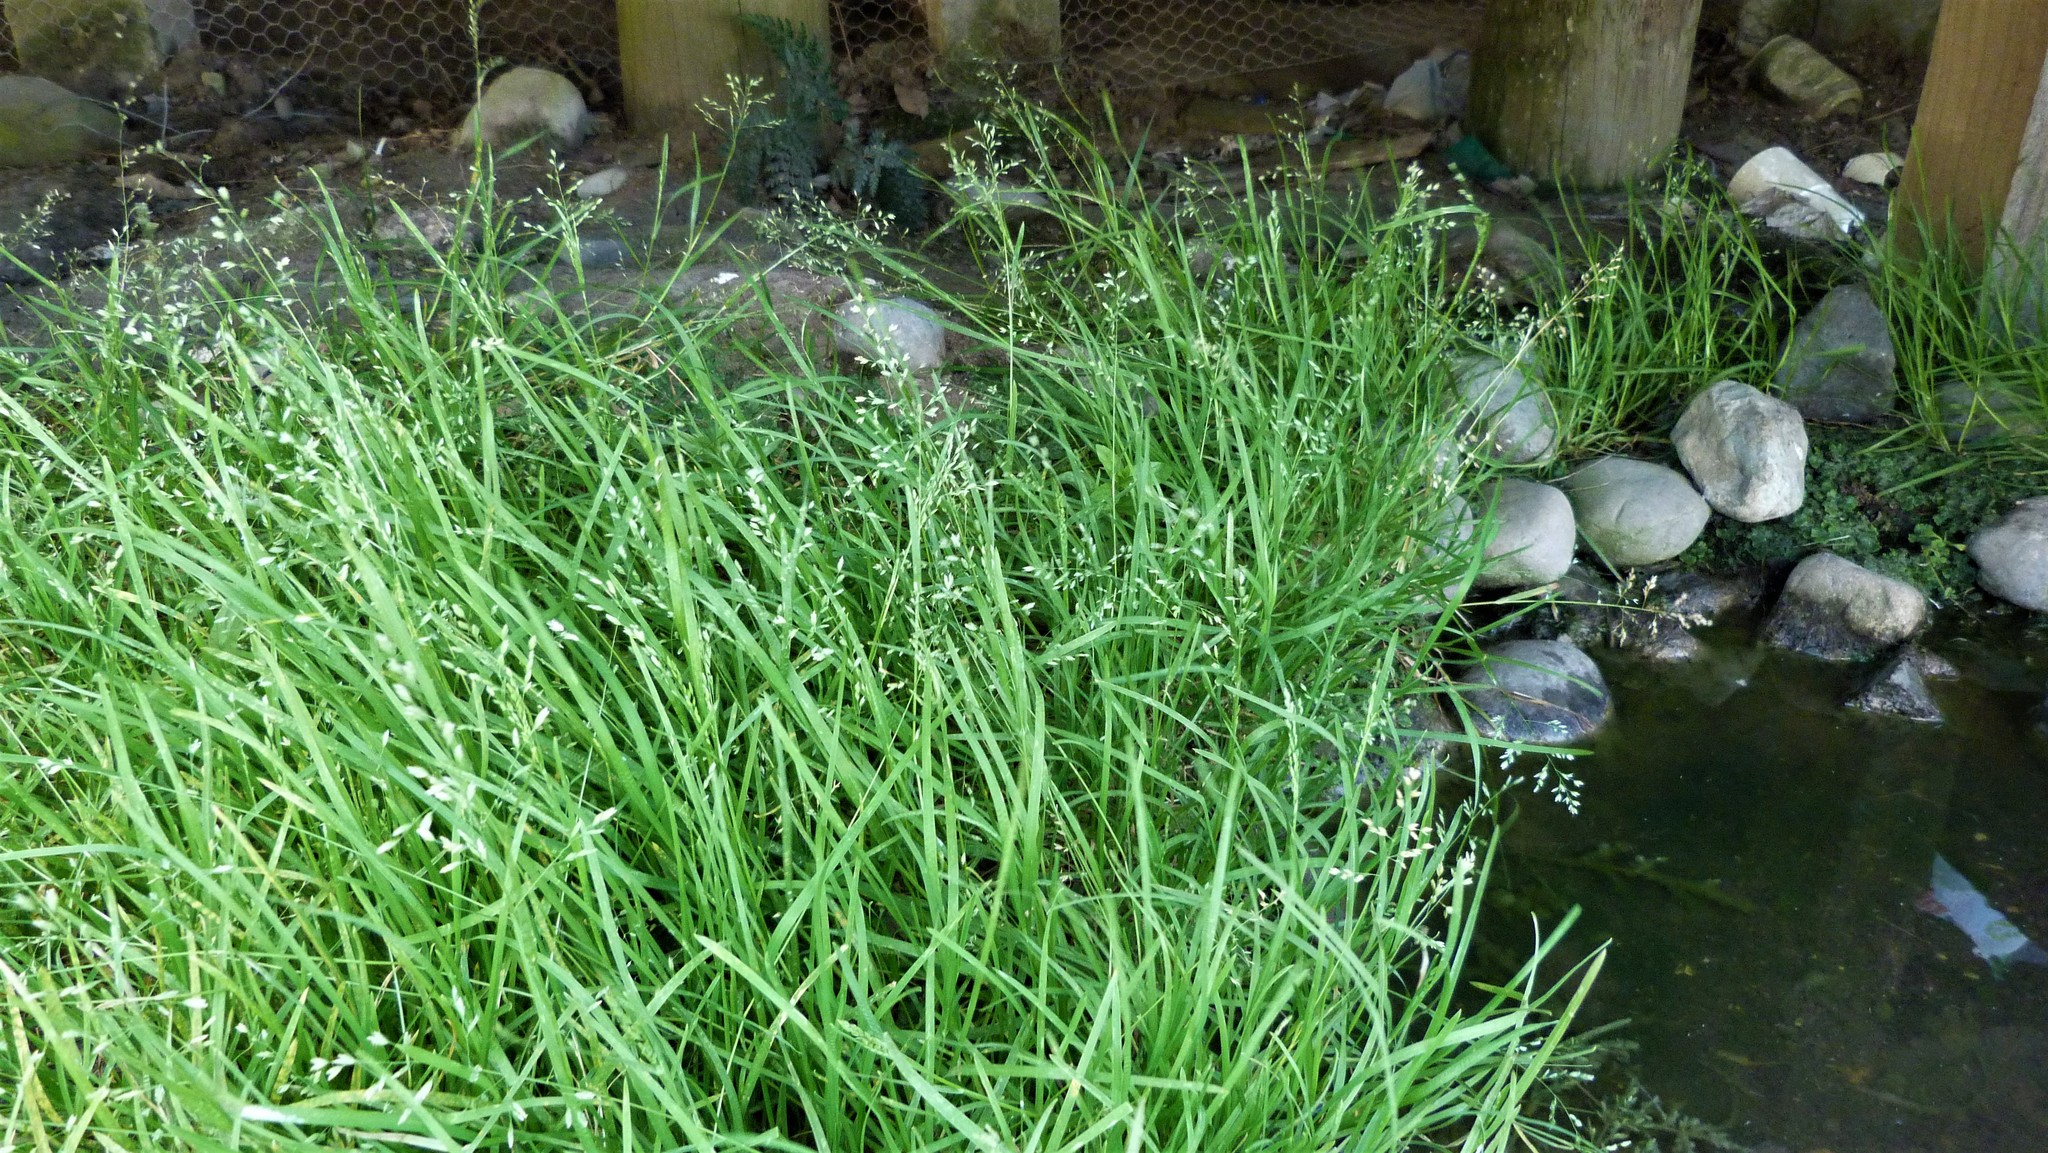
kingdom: Plantae
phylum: Tracheophyta
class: Liliopsida
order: Poales
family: Poaceae
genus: Poa
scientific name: Poa annua
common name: Annual bluegrass
